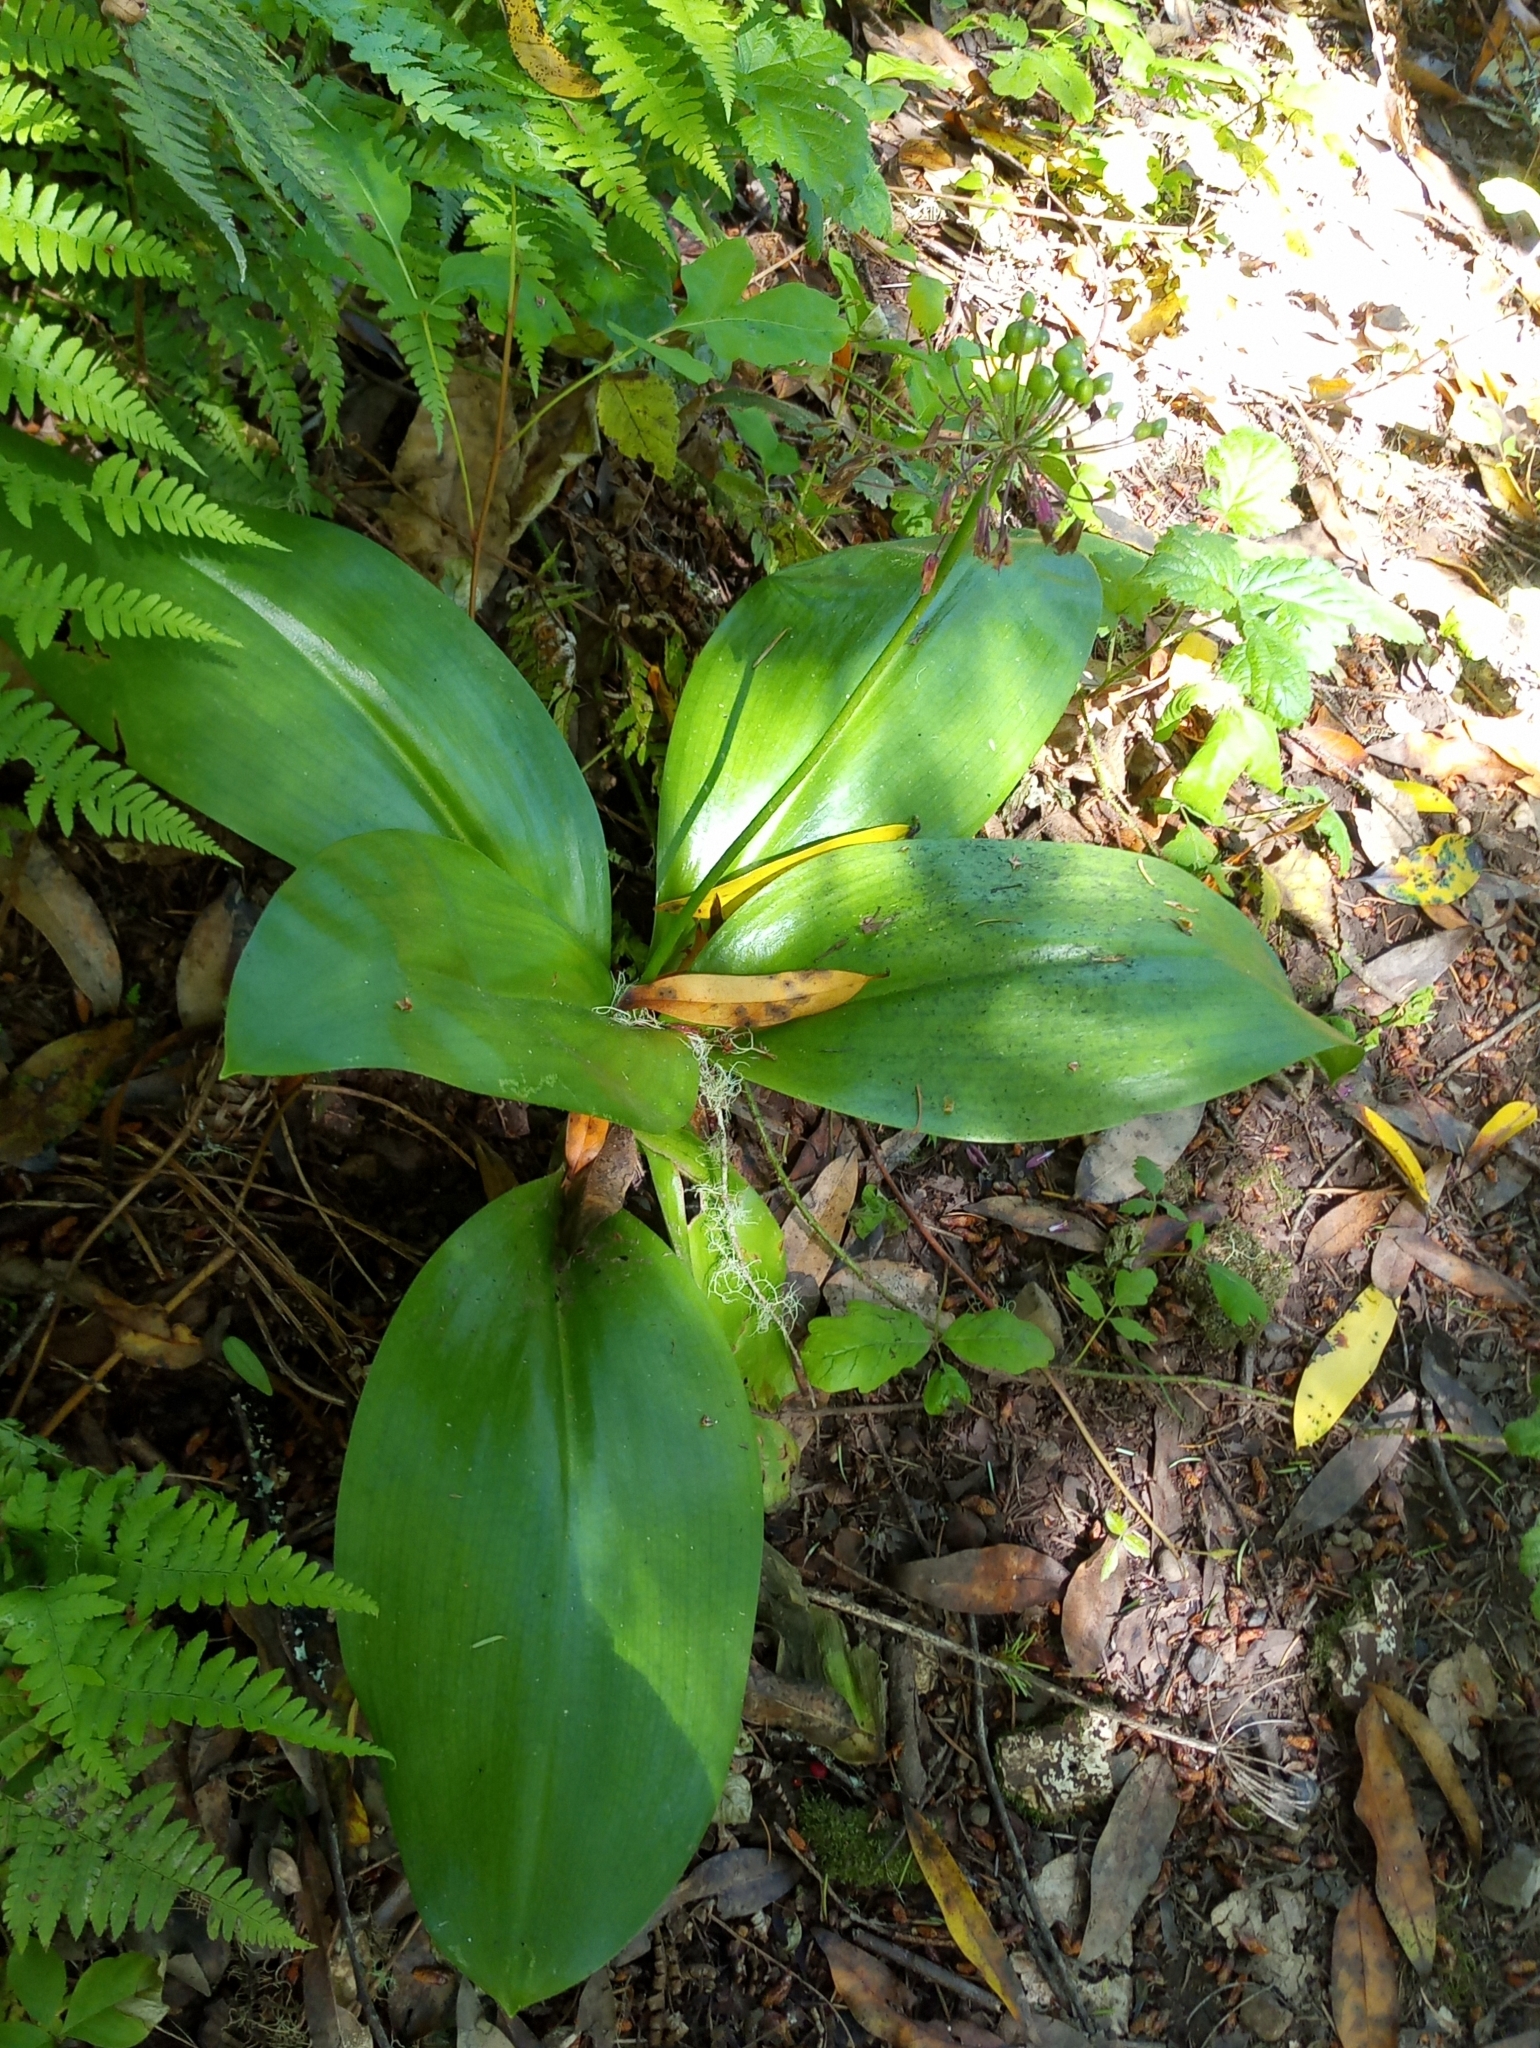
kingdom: Plantae
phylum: Tracheophyta
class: Liliopsida
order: Liliales
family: Liliaceae
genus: Clintonia
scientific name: Clintonia andrewsiana
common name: Red clintonia
